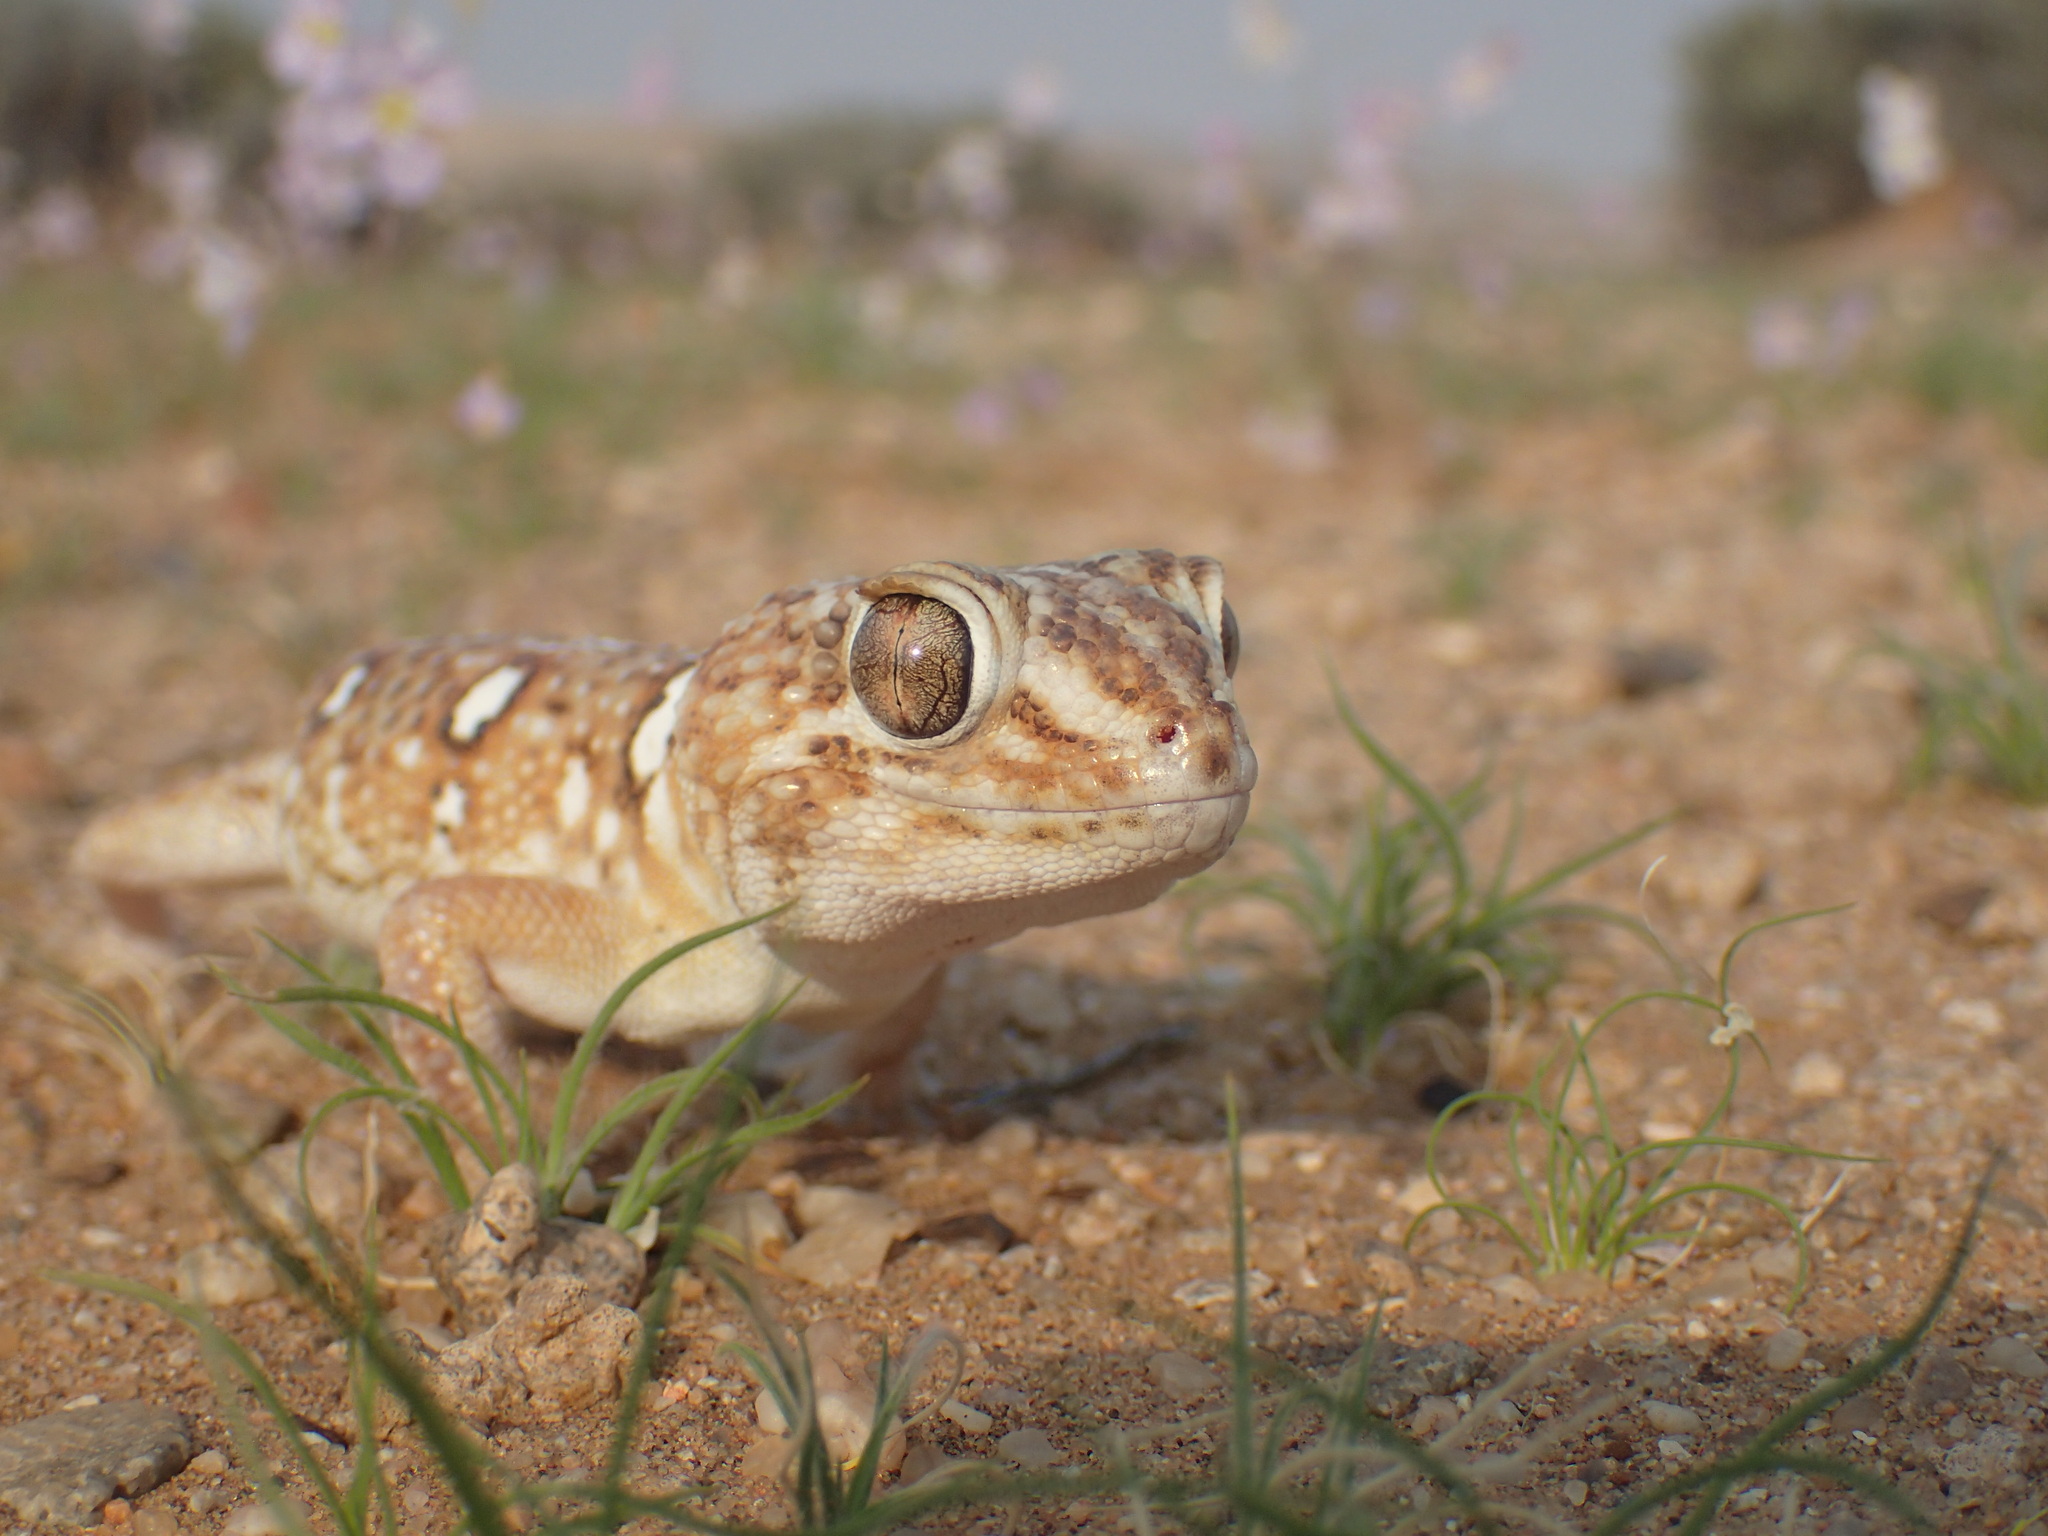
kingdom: Animalia
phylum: Chordata
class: Squamata
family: Gekkonidae
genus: Chondrodactylus
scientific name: Chondrodactylus angulifer
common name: Common giant ground gecko
